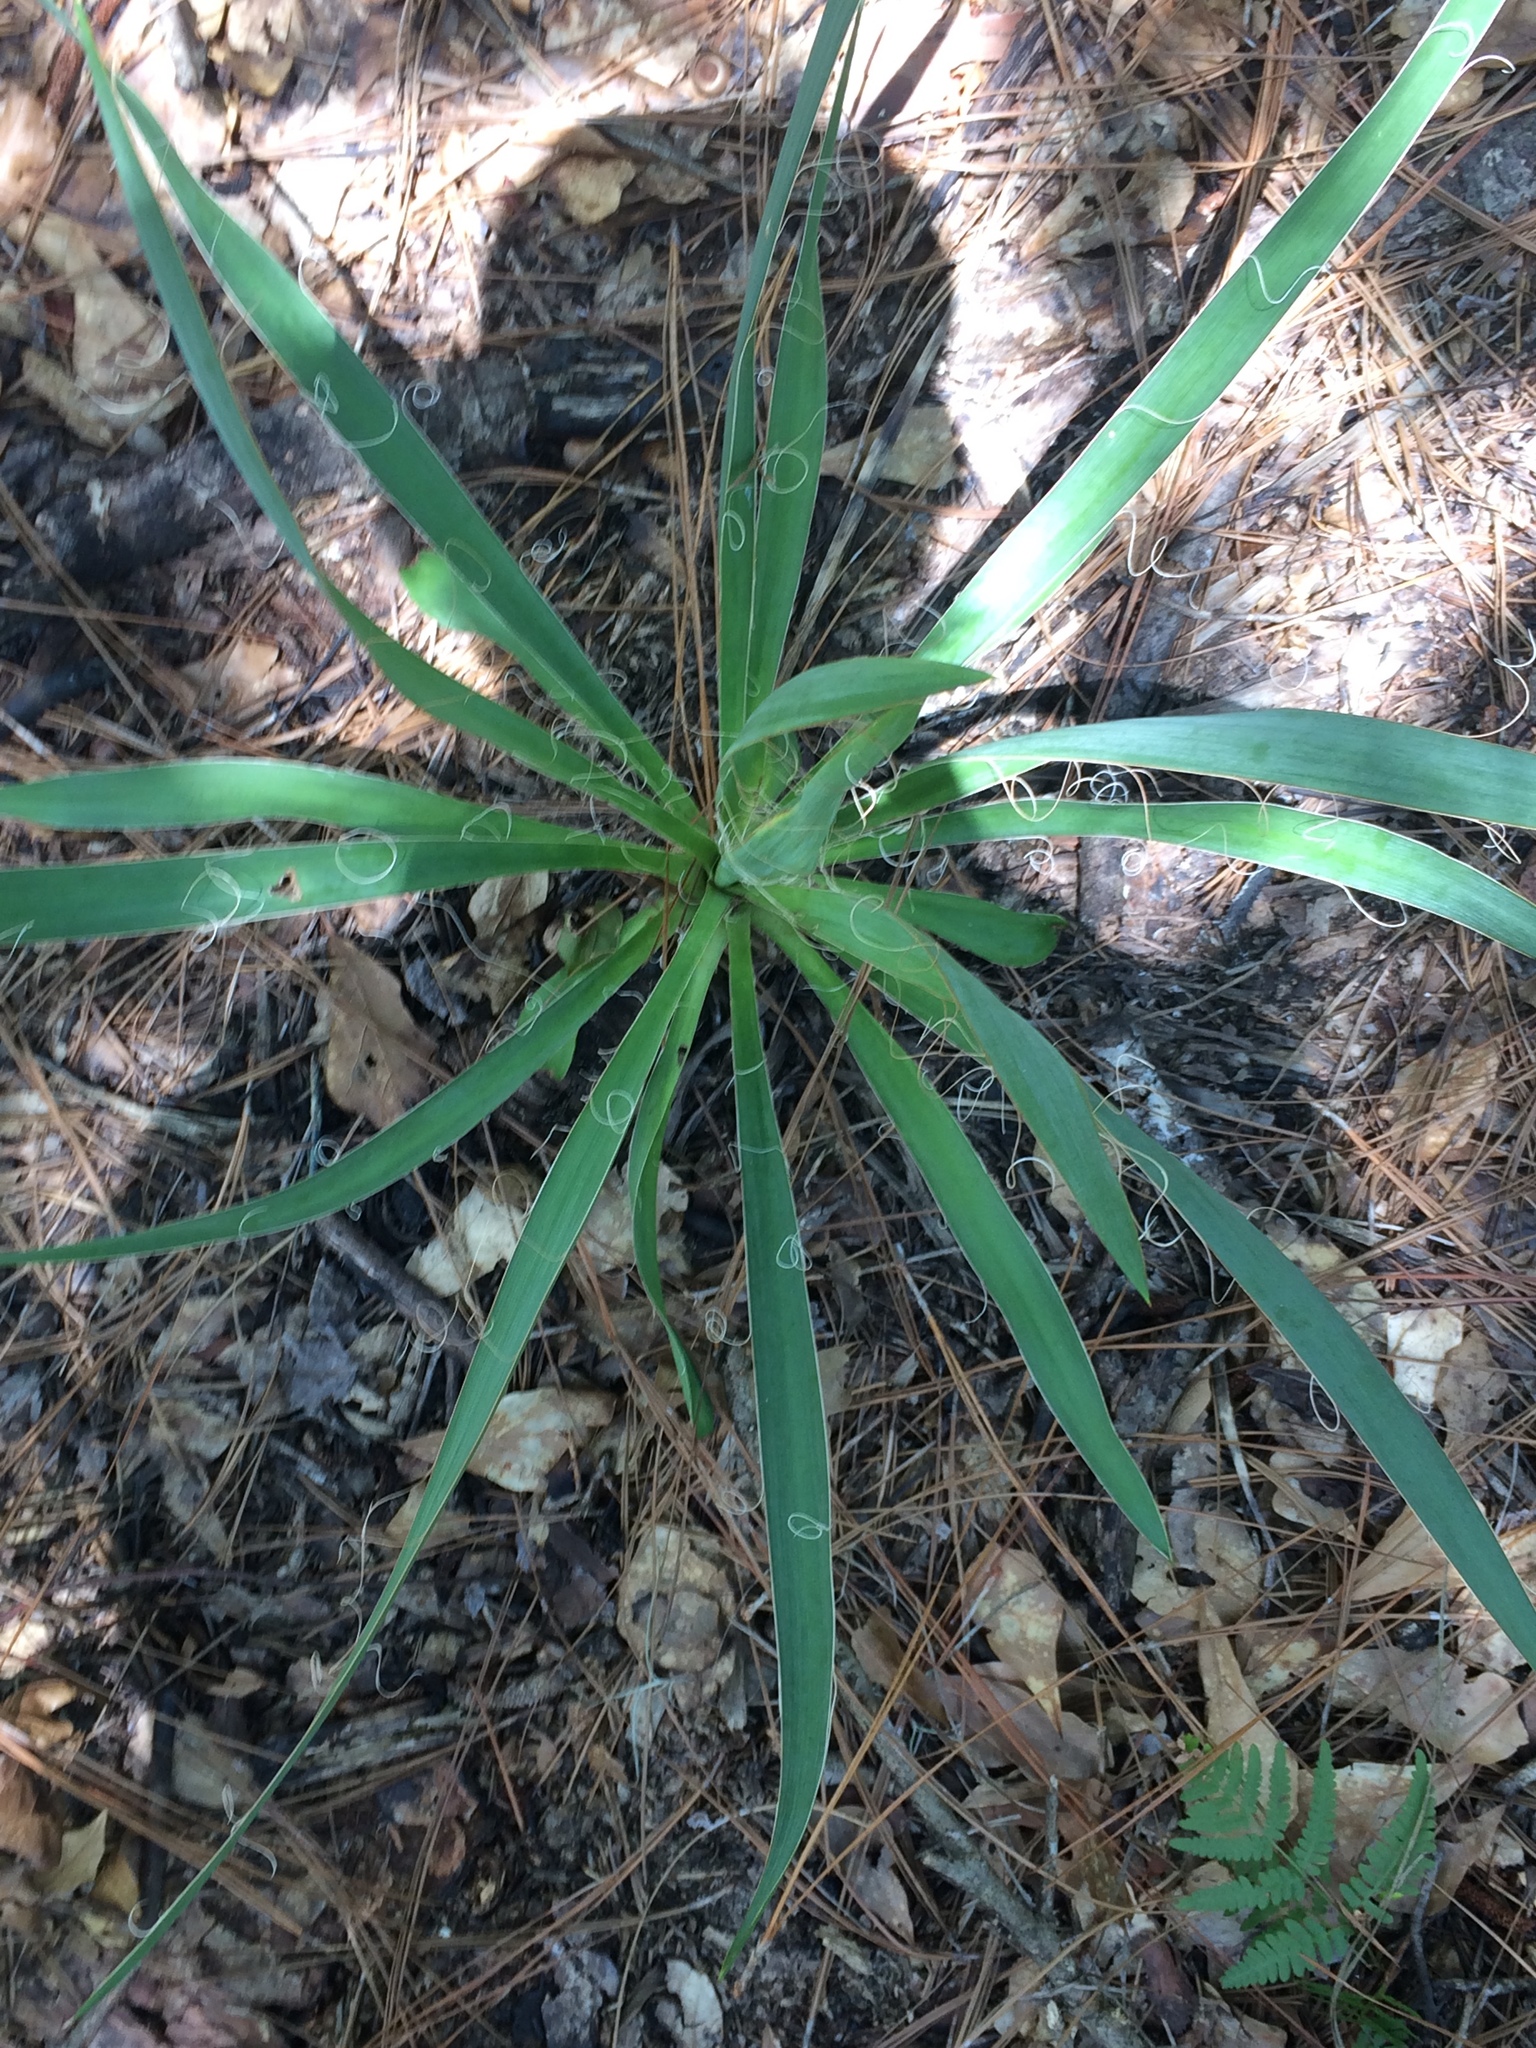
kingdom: Plantae
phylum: Tracheophyta
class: Liliopsida
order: Asparagales
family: Asparagaceae
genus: Yucca
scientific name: Yucca filamentosa
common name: Adam's-needle
